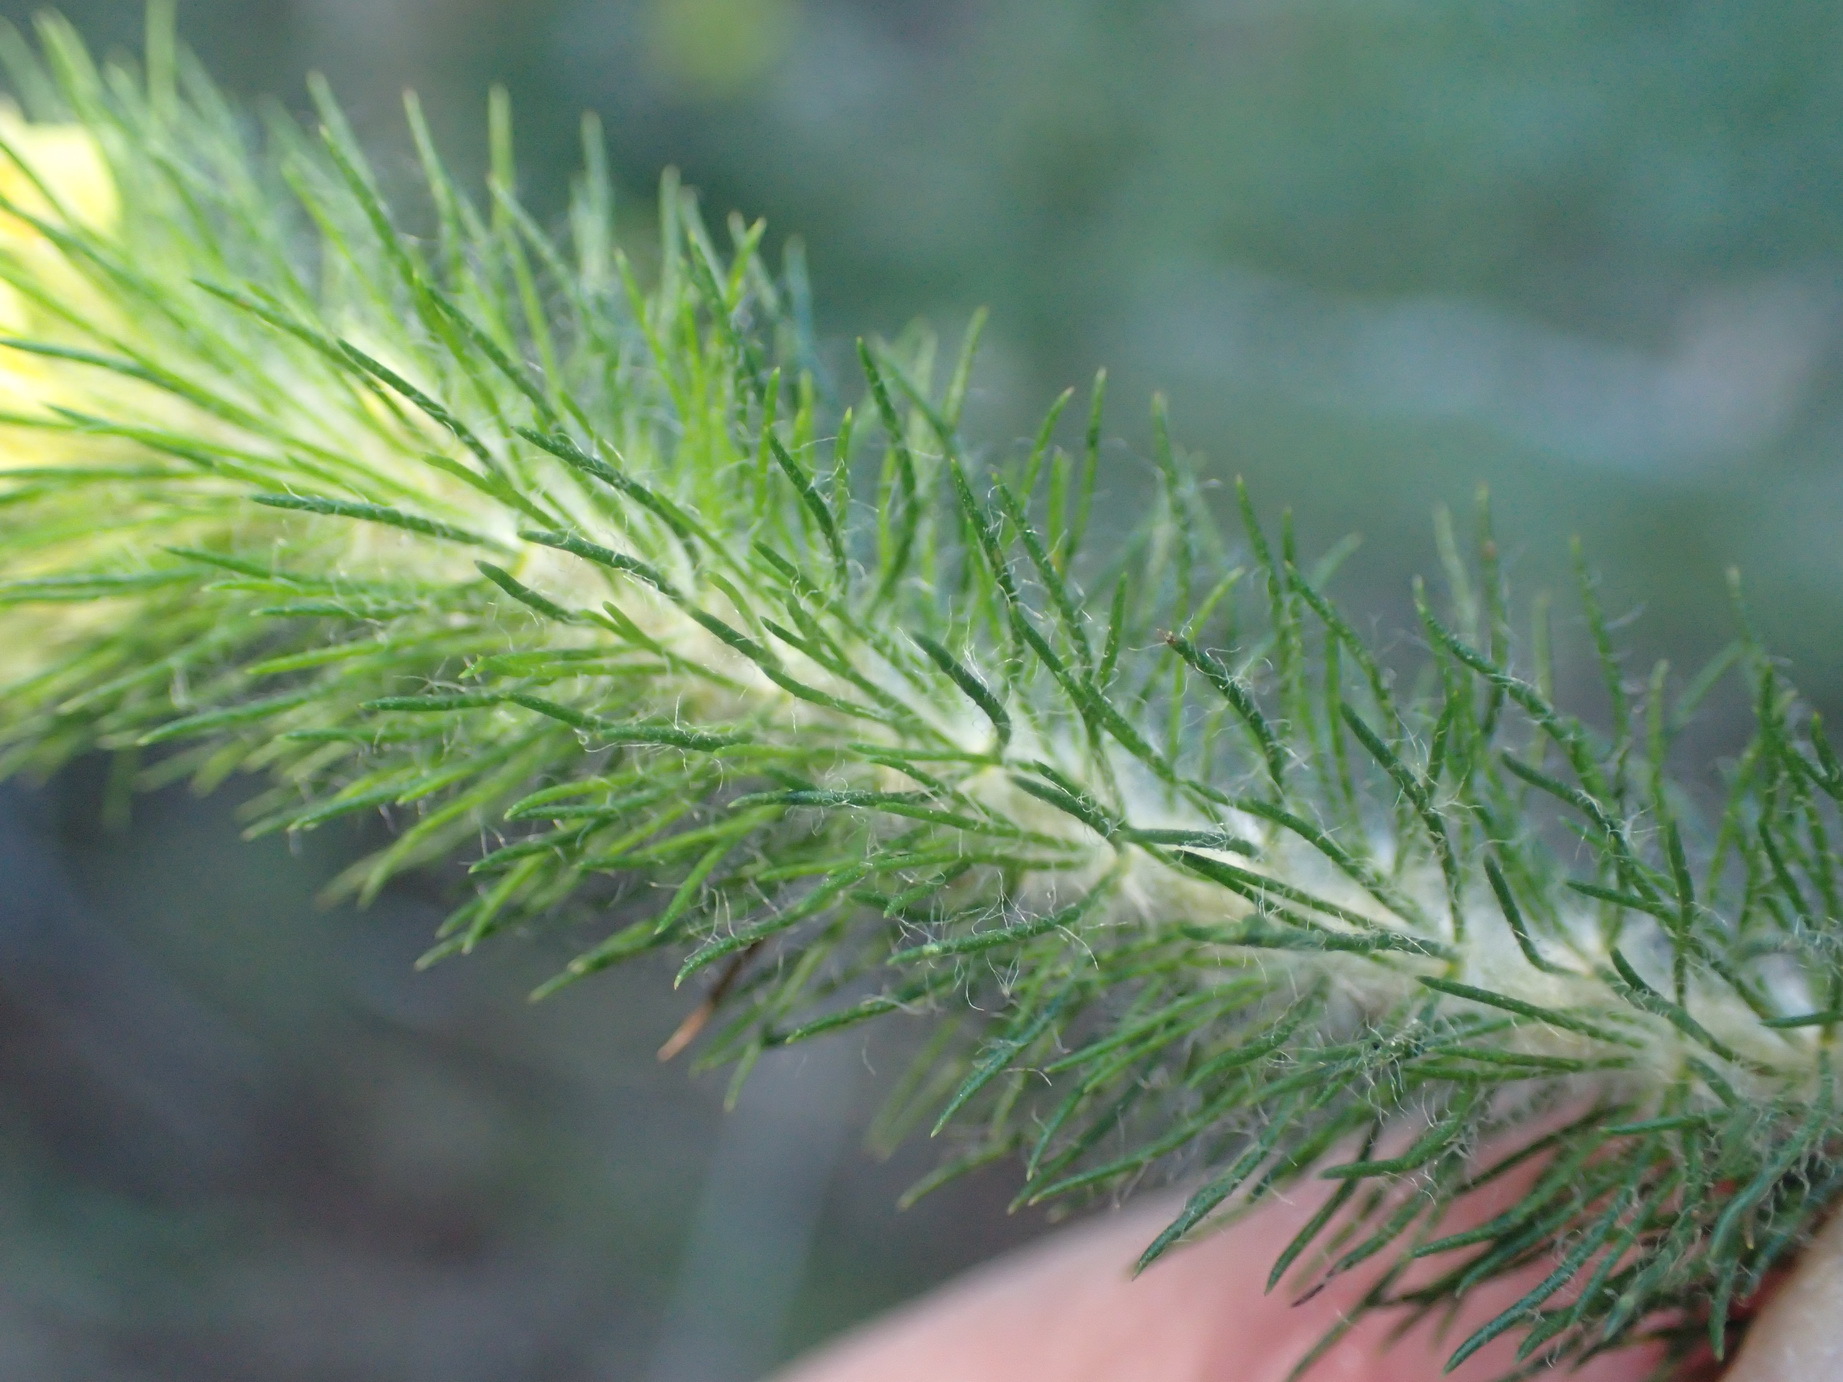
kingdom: Plantae
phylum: Tracheophyta
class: Magnoliopsida
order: Fabales
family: Fabaceae
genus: Aspalathus
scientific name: Aspalathus alopecurus
